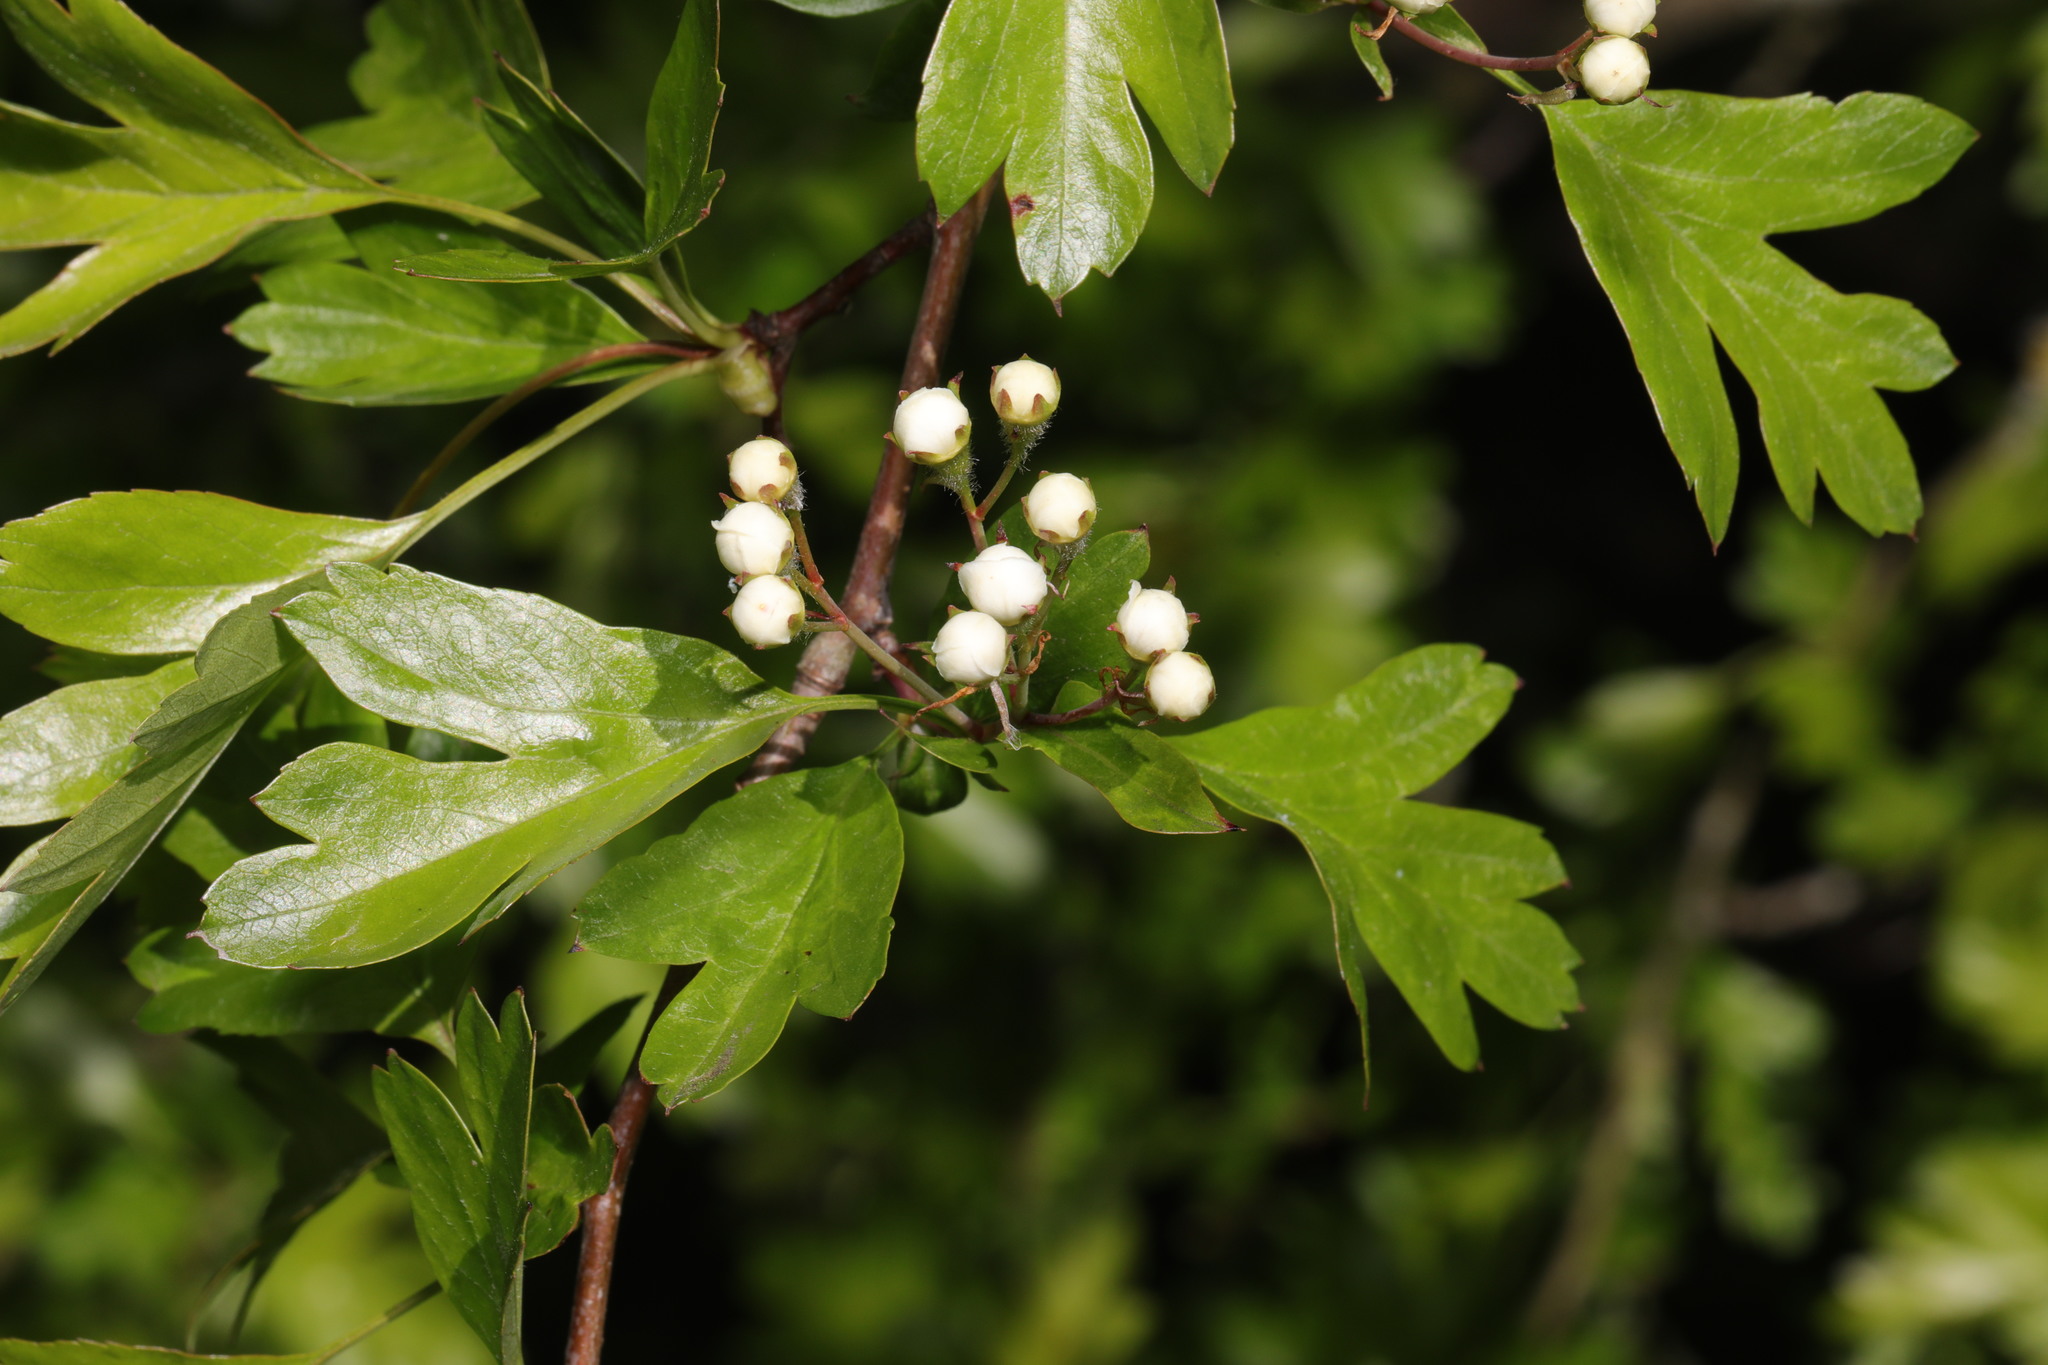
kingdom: Plantae
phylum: Tracheophyta
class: Magnoliopsida
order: Rosales
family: Rosaceae
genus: Crataegus
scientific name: Crataegus monogyna
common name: Hawthorn
